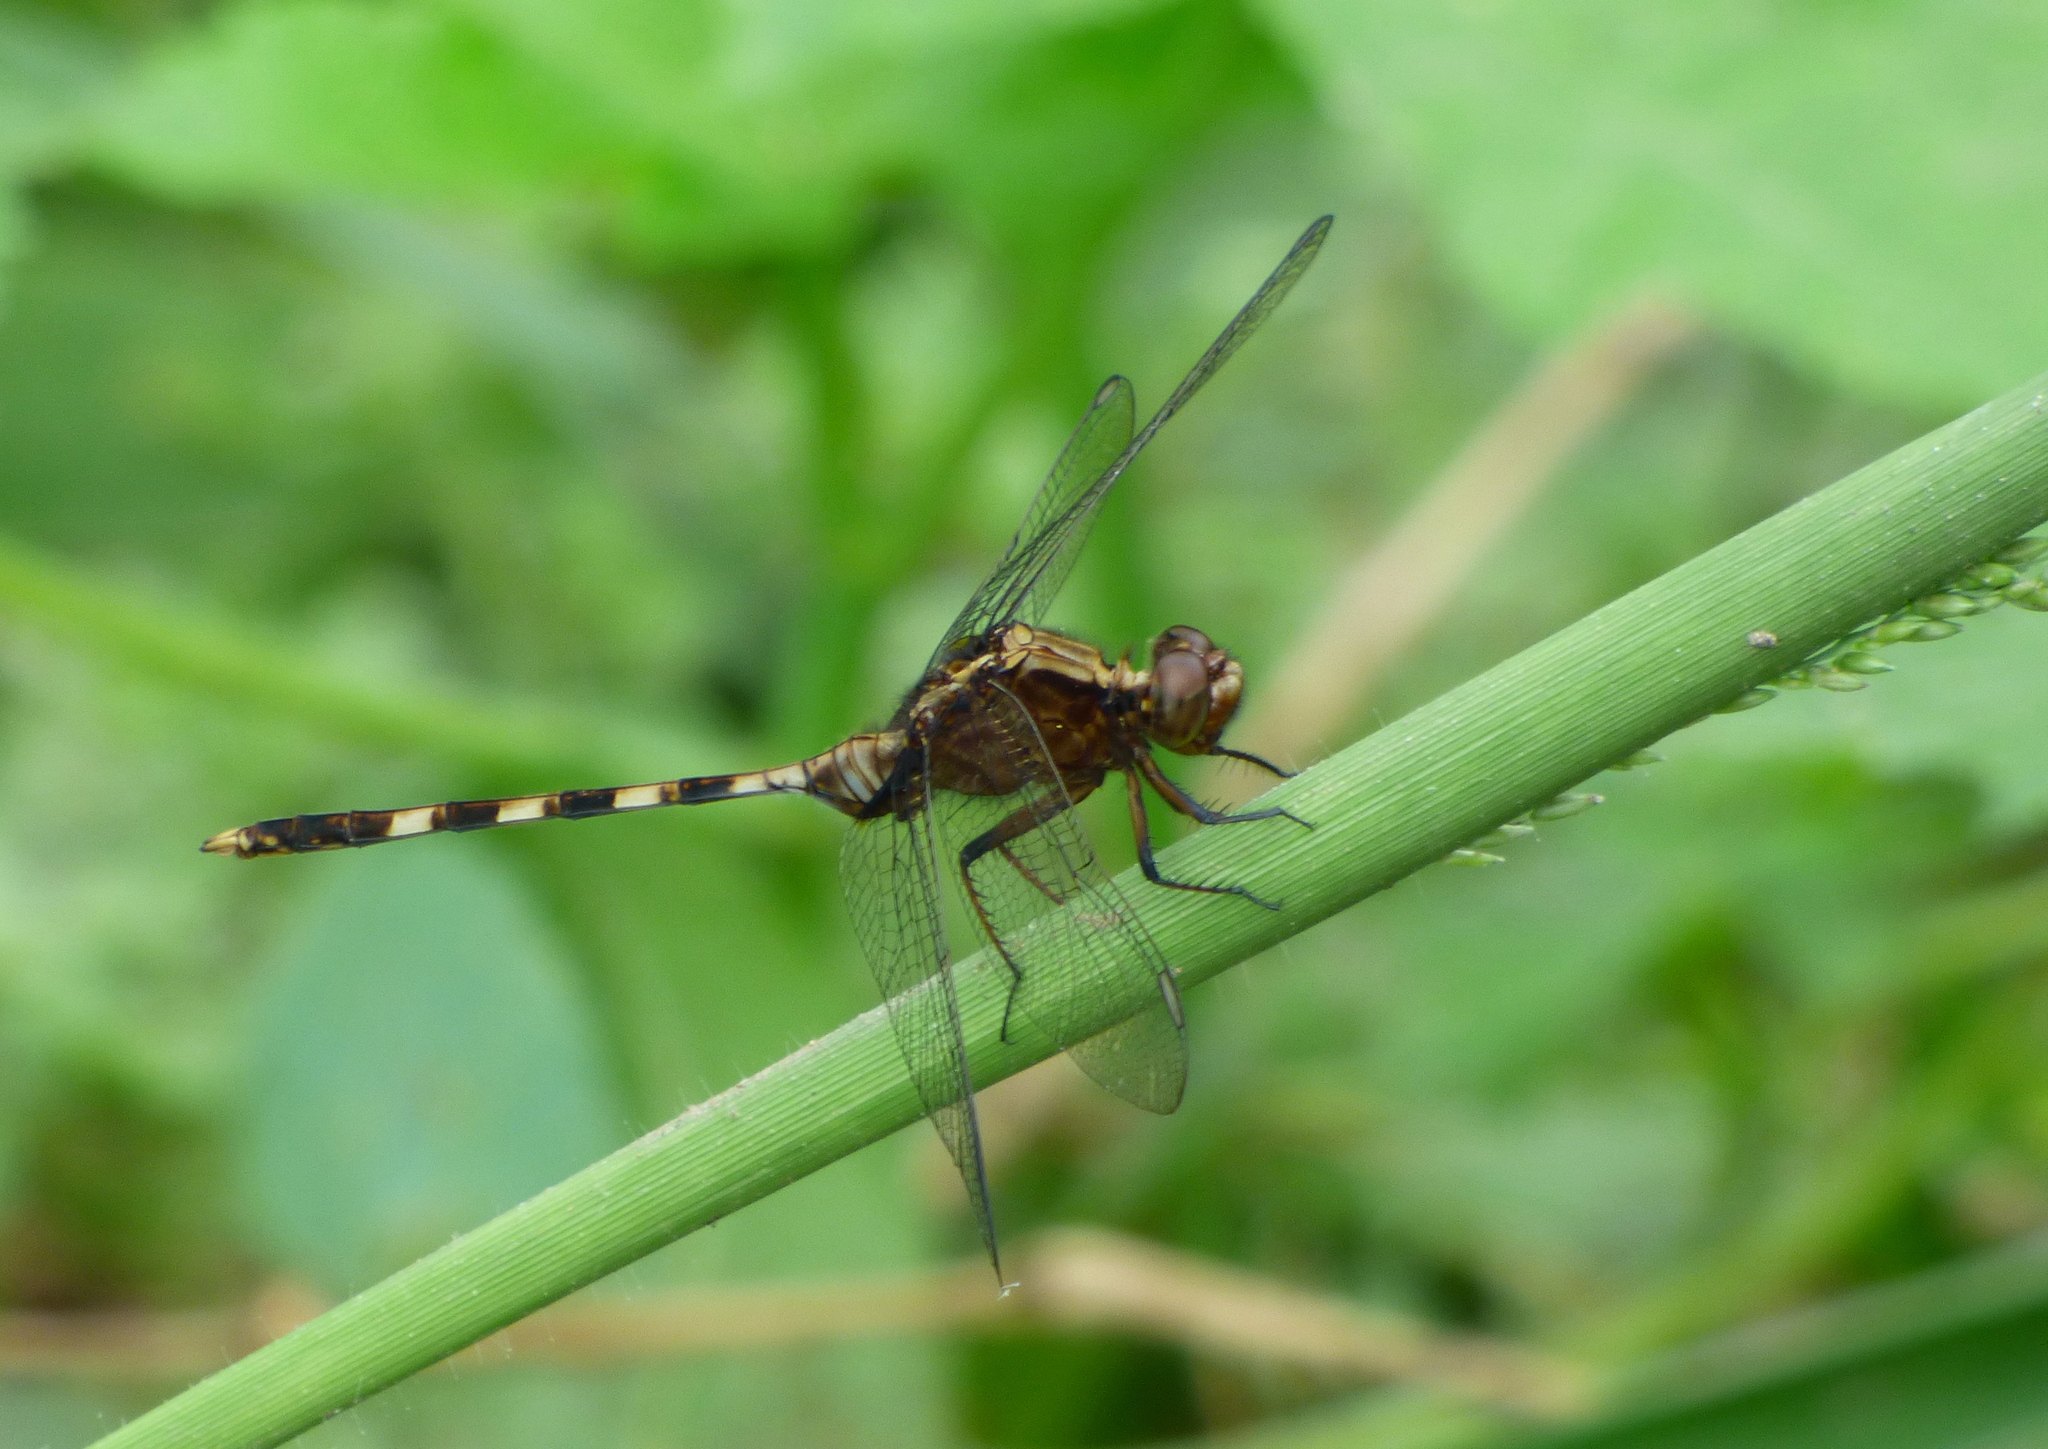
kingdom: Animalia
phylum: Arthropoda
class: Insecta
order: Odonata
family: Libellulidae
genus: Erythemis
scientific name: Erythemis plebeja
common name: Pin-tailed pondhawk
